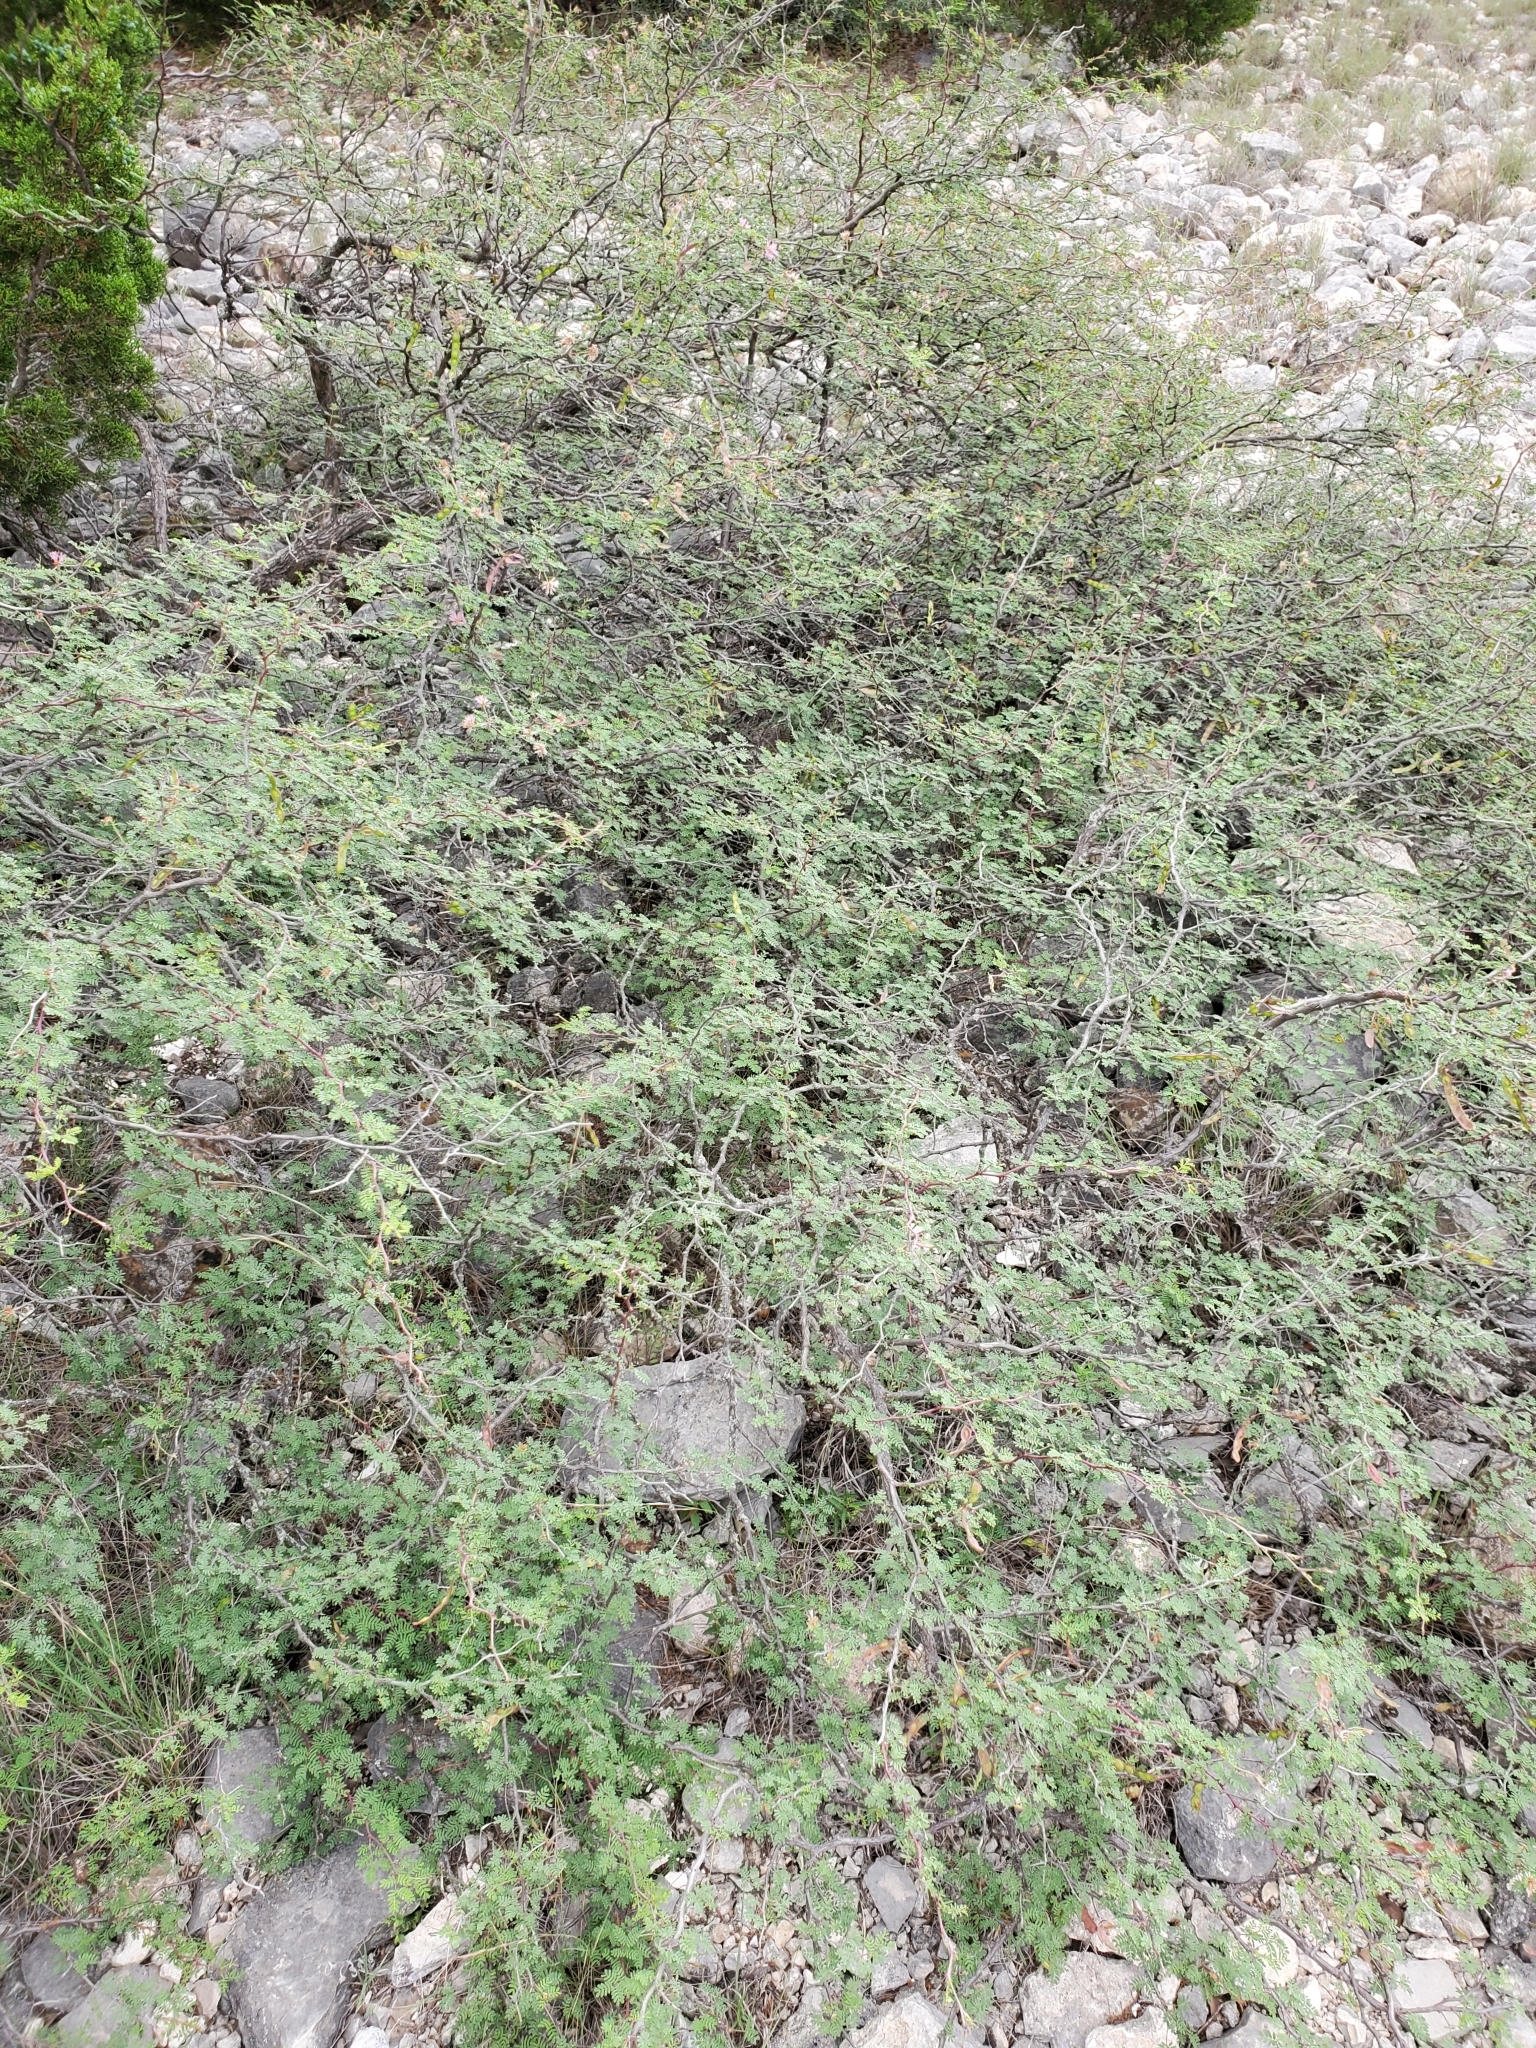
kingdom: Plantae
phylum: Tracheophyta
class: Magnoliopsida
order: Fabales
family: Fabaceae
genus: Mimosa
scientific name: Mimosa texana
